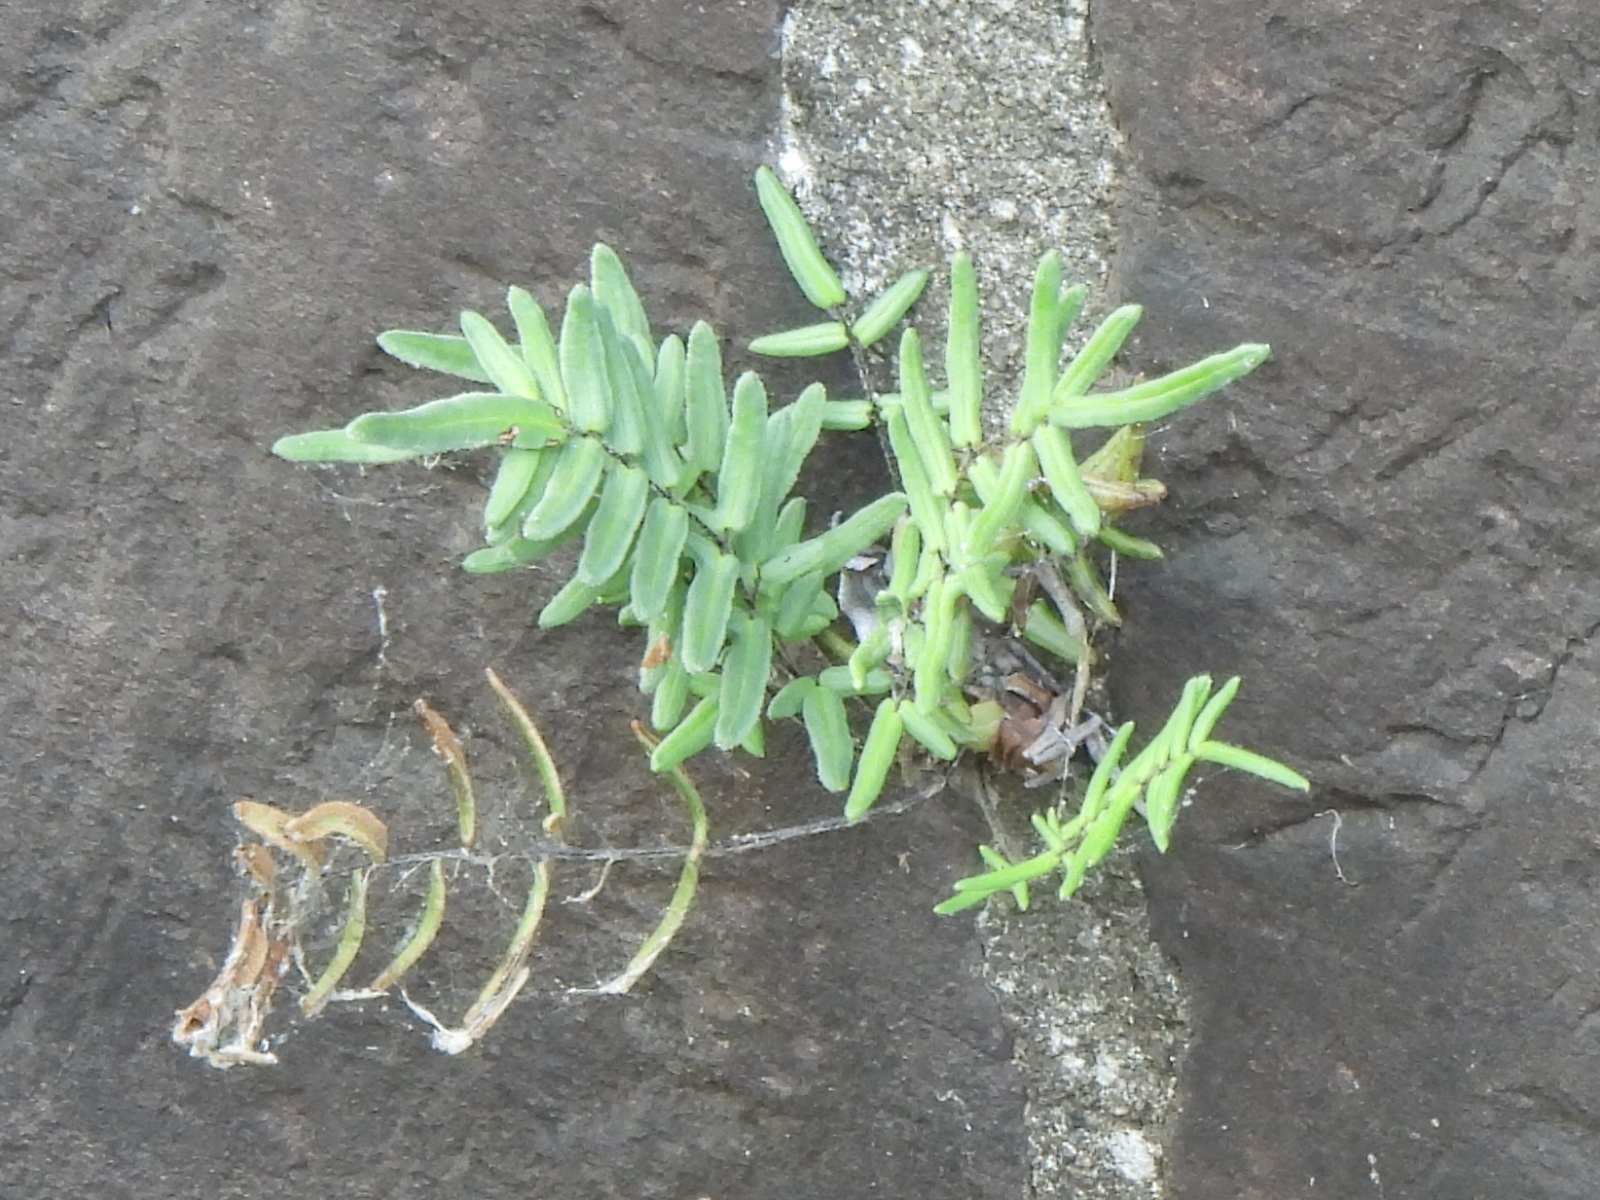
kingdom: Plantae
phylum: Tracheophyta
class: Polypodiopsida
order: Polypodiales
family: Pteridaceae
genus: Pellaea
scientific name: Pellaea atropurpurea
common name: Hairy cliffbrake
